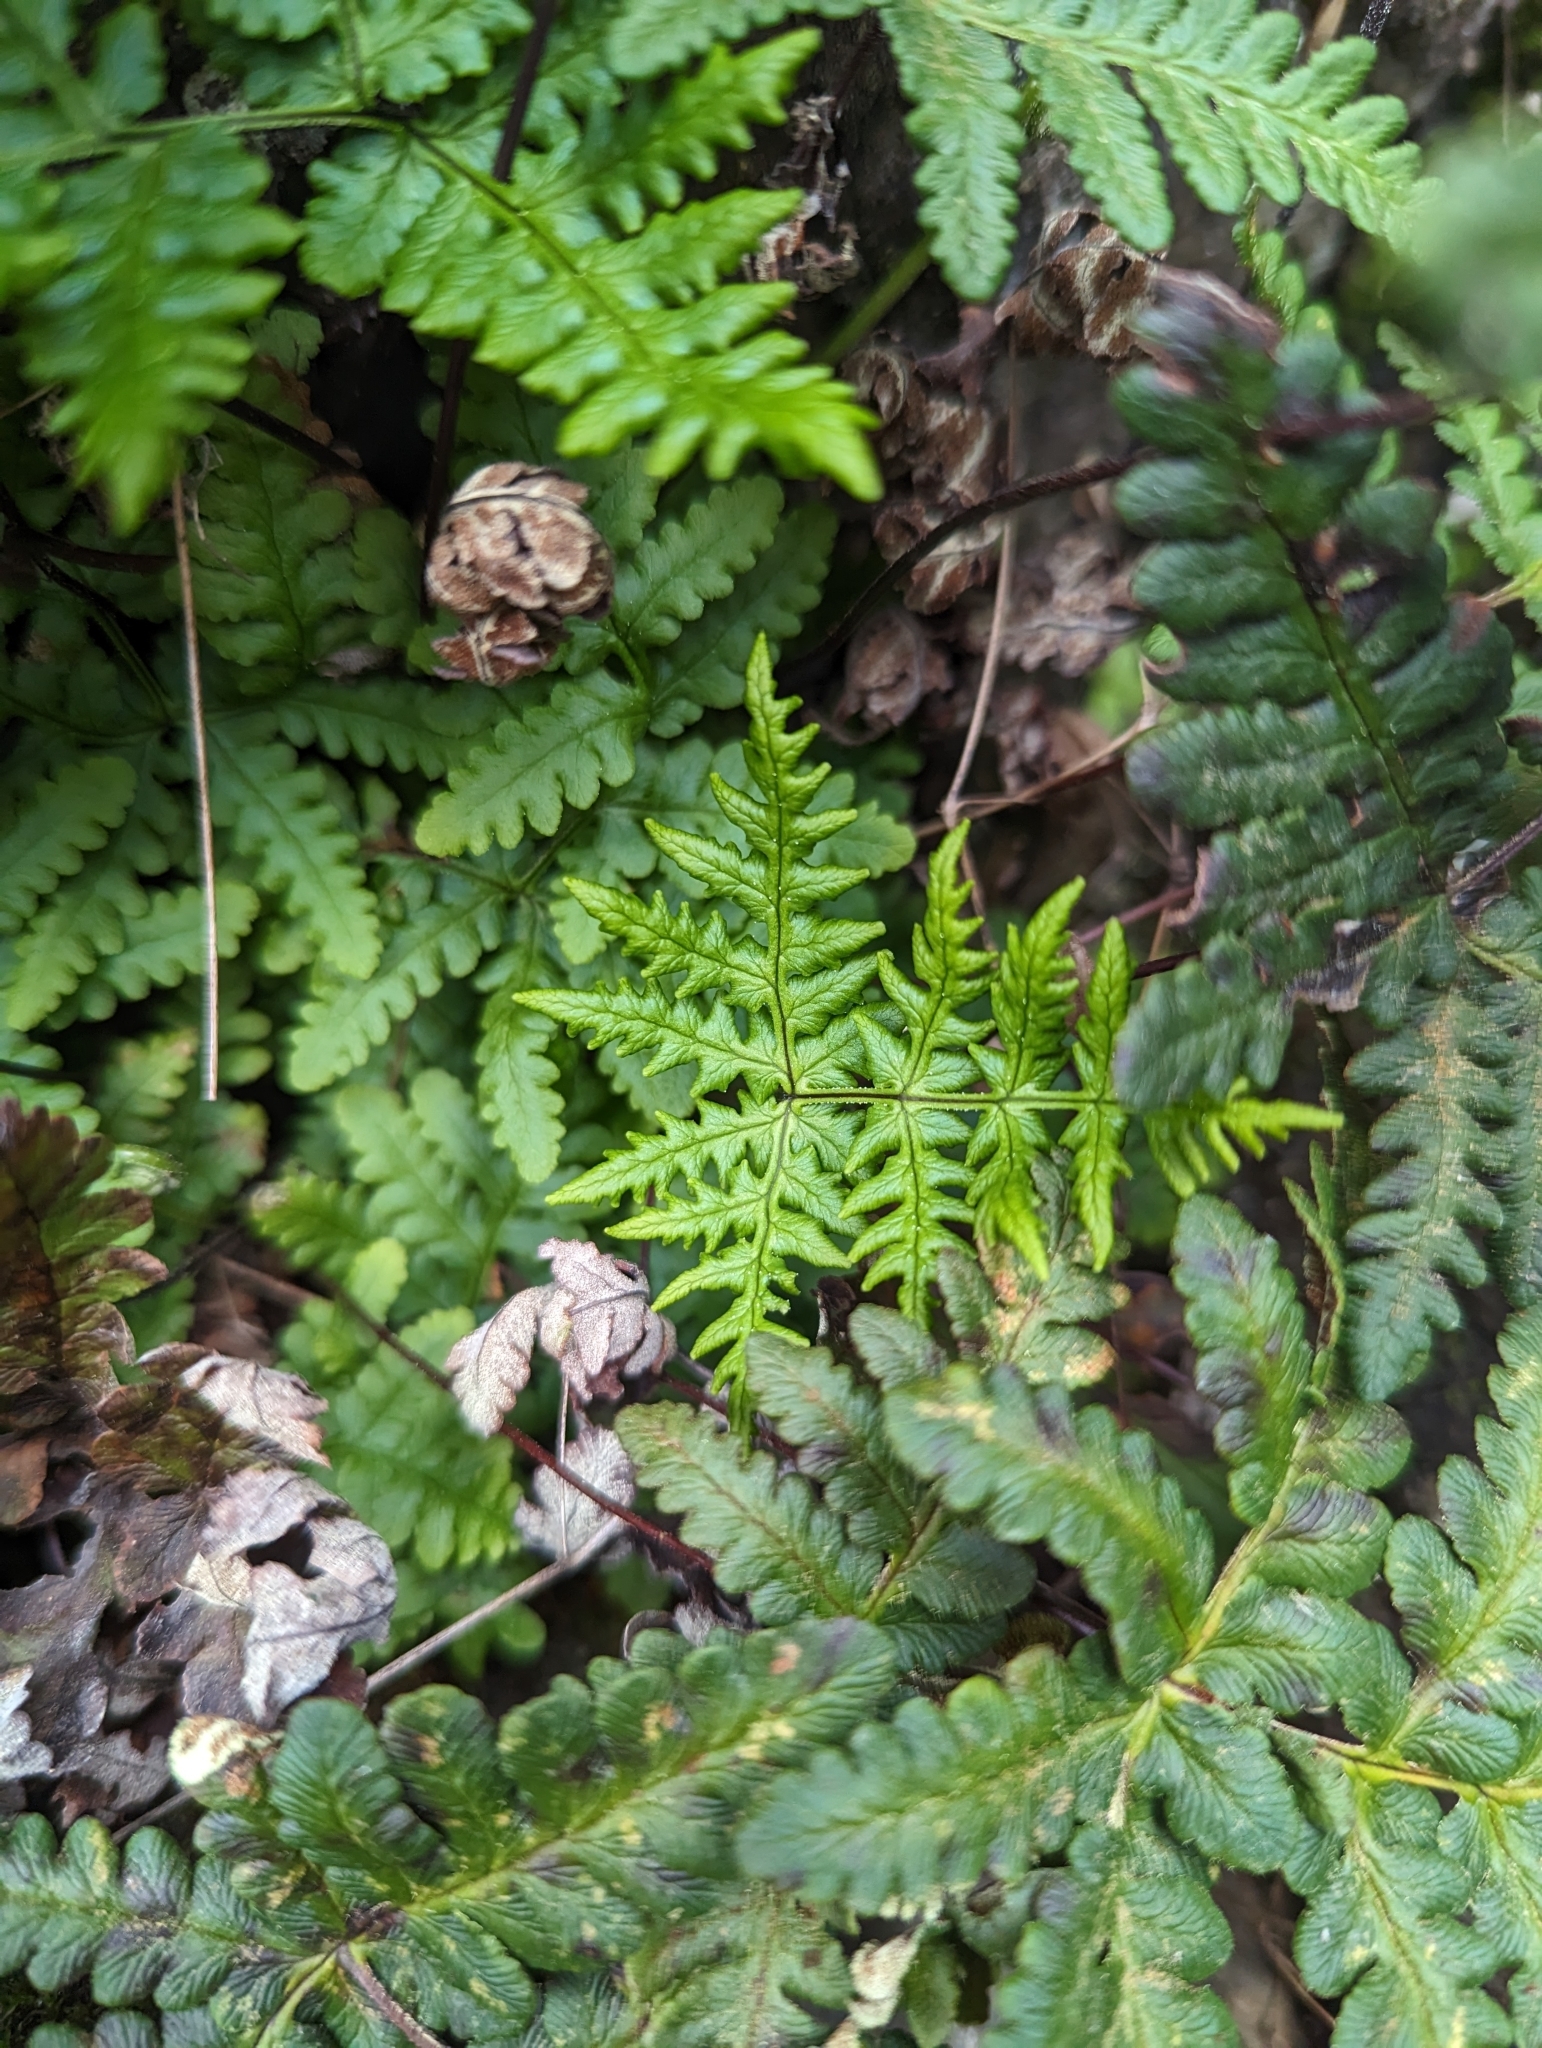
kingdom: Plantae
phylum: Tracheophyta
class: Polypodiopsida
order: Polypodiales
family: Pteridaceae
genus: Pentagramma
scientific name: Pentagramma triangularis
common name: Gold fern
